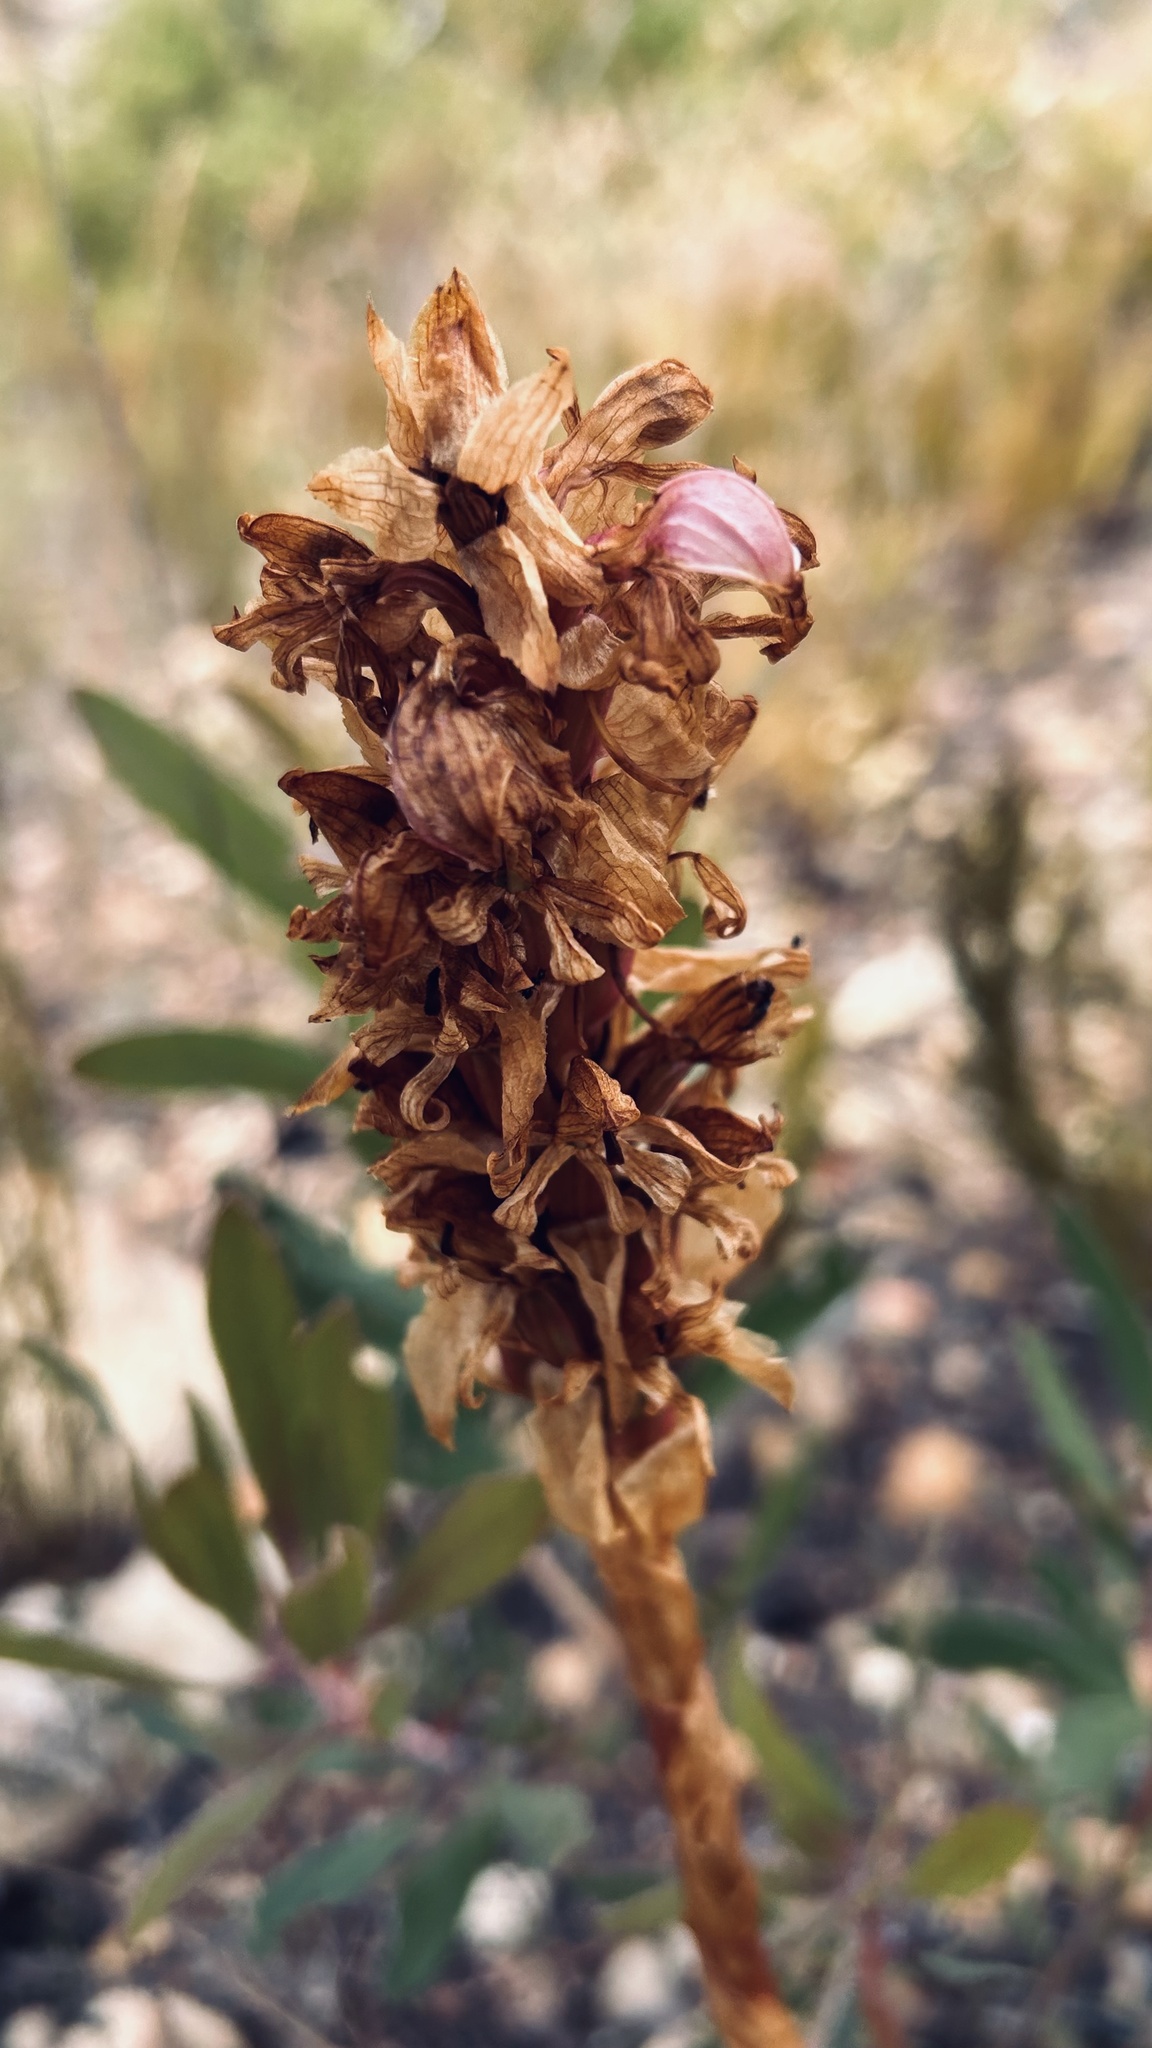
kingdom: Plantae
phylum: Tracheophyta
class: Liliopsida
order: Asparagales
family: Orchidaceae
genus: Satyrium
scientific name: Satyrium carneum
